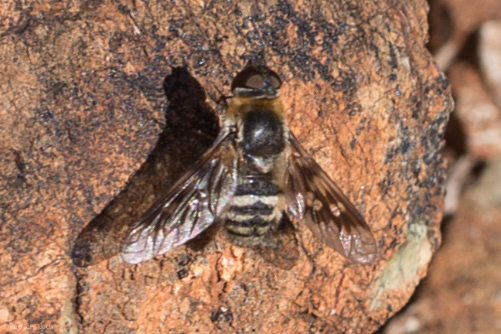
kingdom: Animalia
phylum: Arthropoda
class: Insecta
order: Diptera
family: Bombyliidae
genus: Thyridanthrax
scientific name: Thyridanthrax nugator
